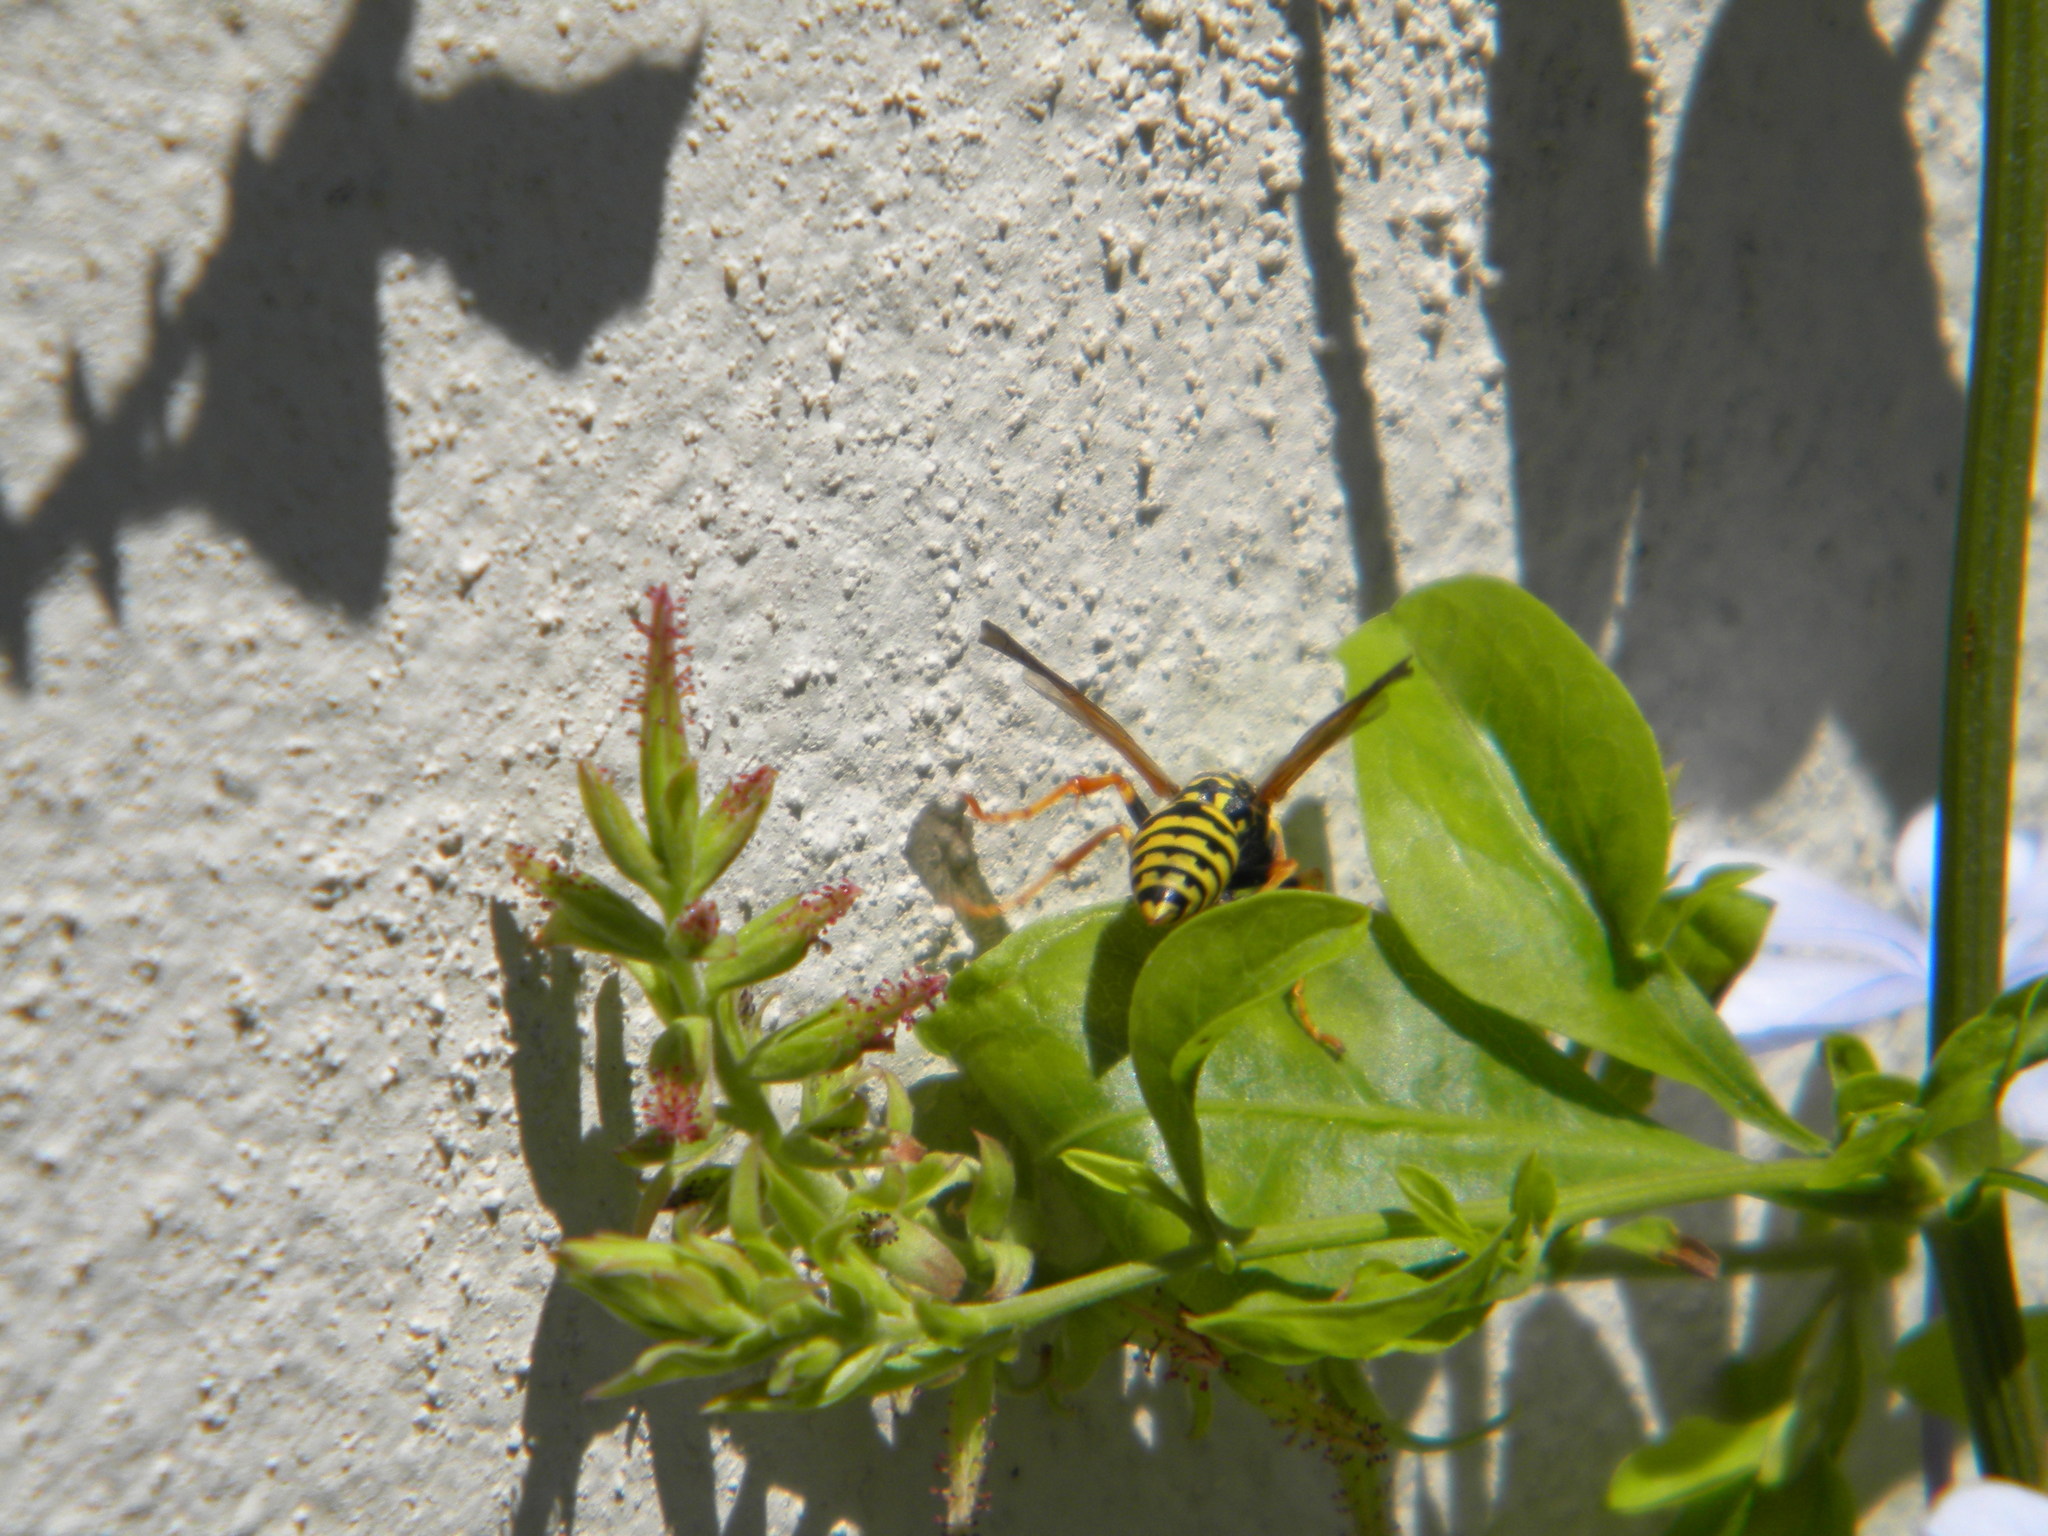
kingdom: Animalia
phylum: Arthropoda
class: Insecta
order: Hymenoptera
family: Eumenidae
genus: Polistes
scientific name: Polistes dominula
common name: Paper wasp
